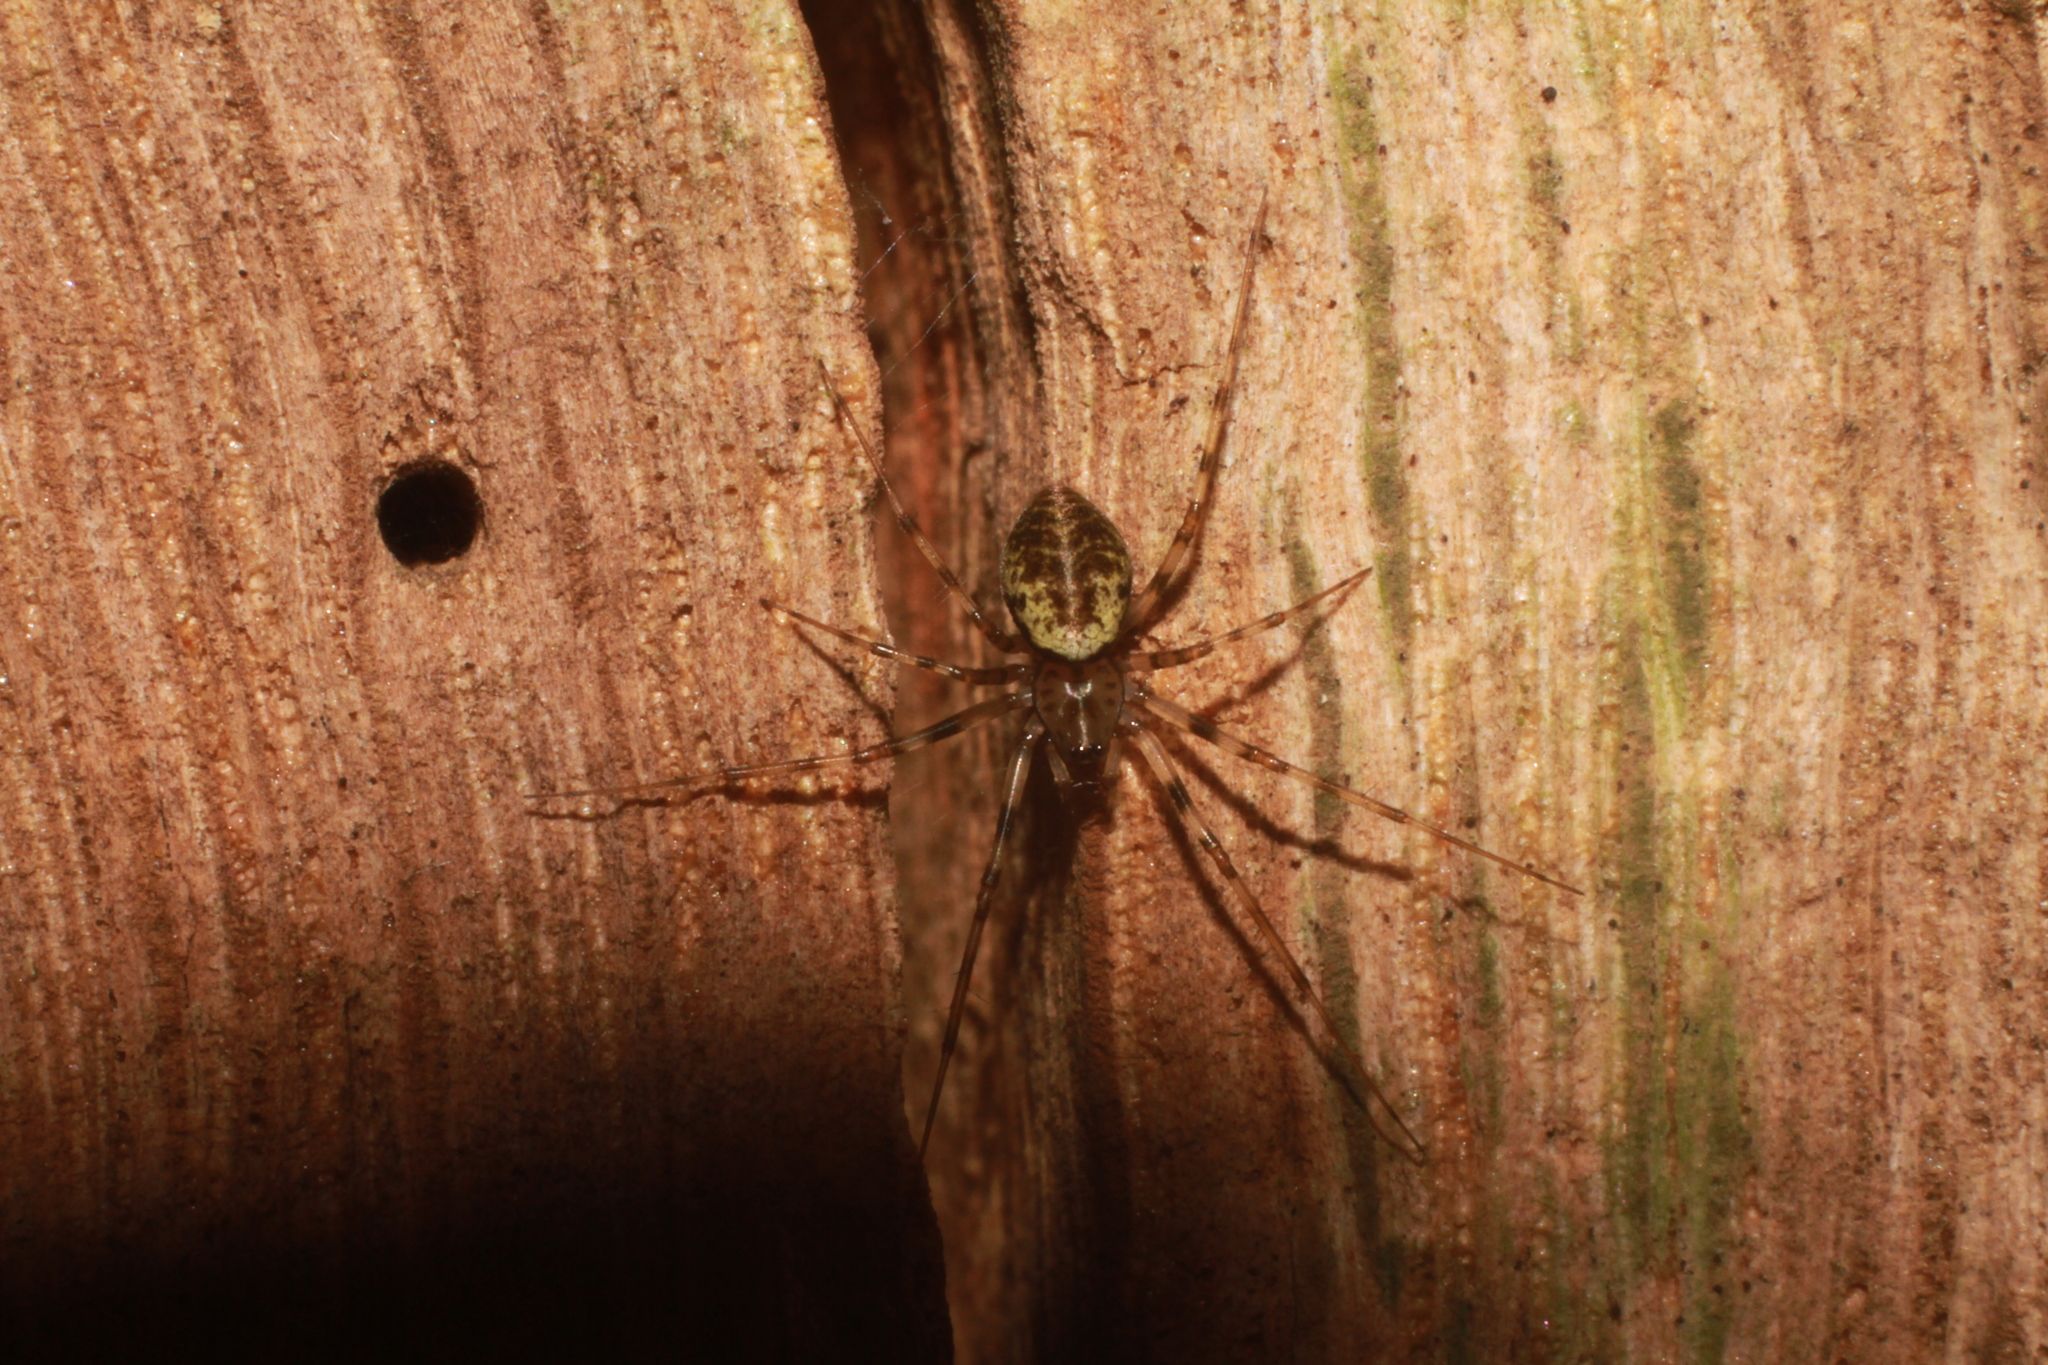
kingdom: Animalia
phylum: Arthropoda
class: Arachnida
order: Araneae
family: Linyphiidae
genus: Drapetisca
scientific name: Drapetisca socialis
